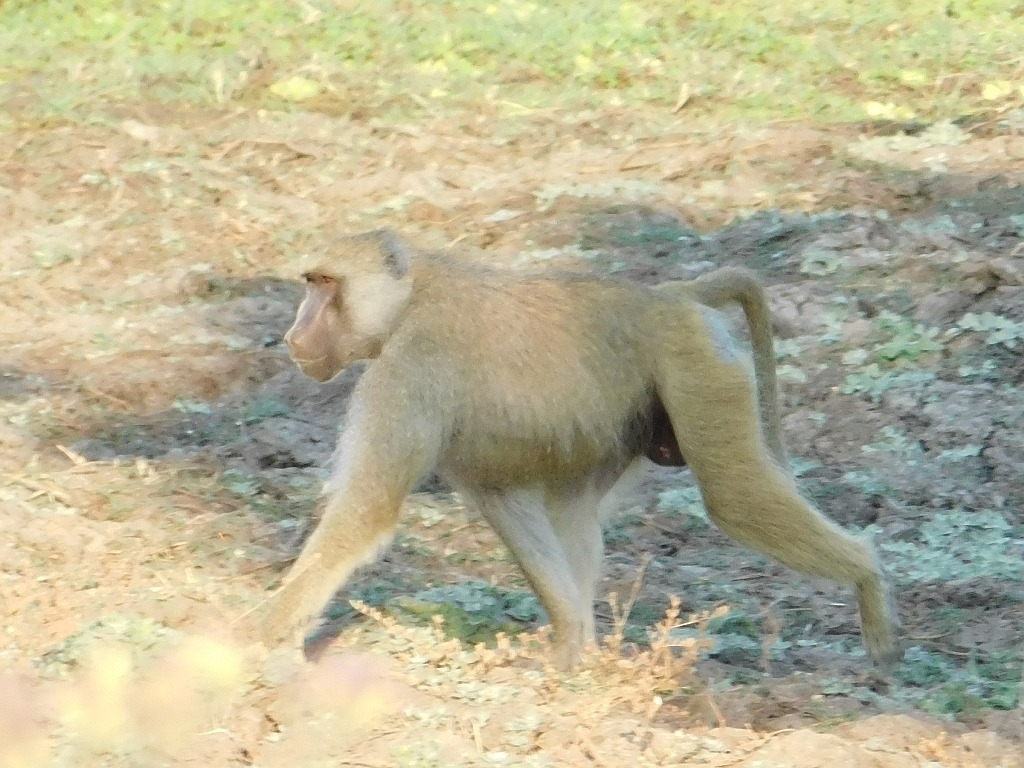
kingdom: Animalia
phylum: Chordata
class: Mammalia
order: Primates
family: Cercopithecidae
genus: Papio
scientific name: Papio cynocephalus
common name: Yellow baboon
